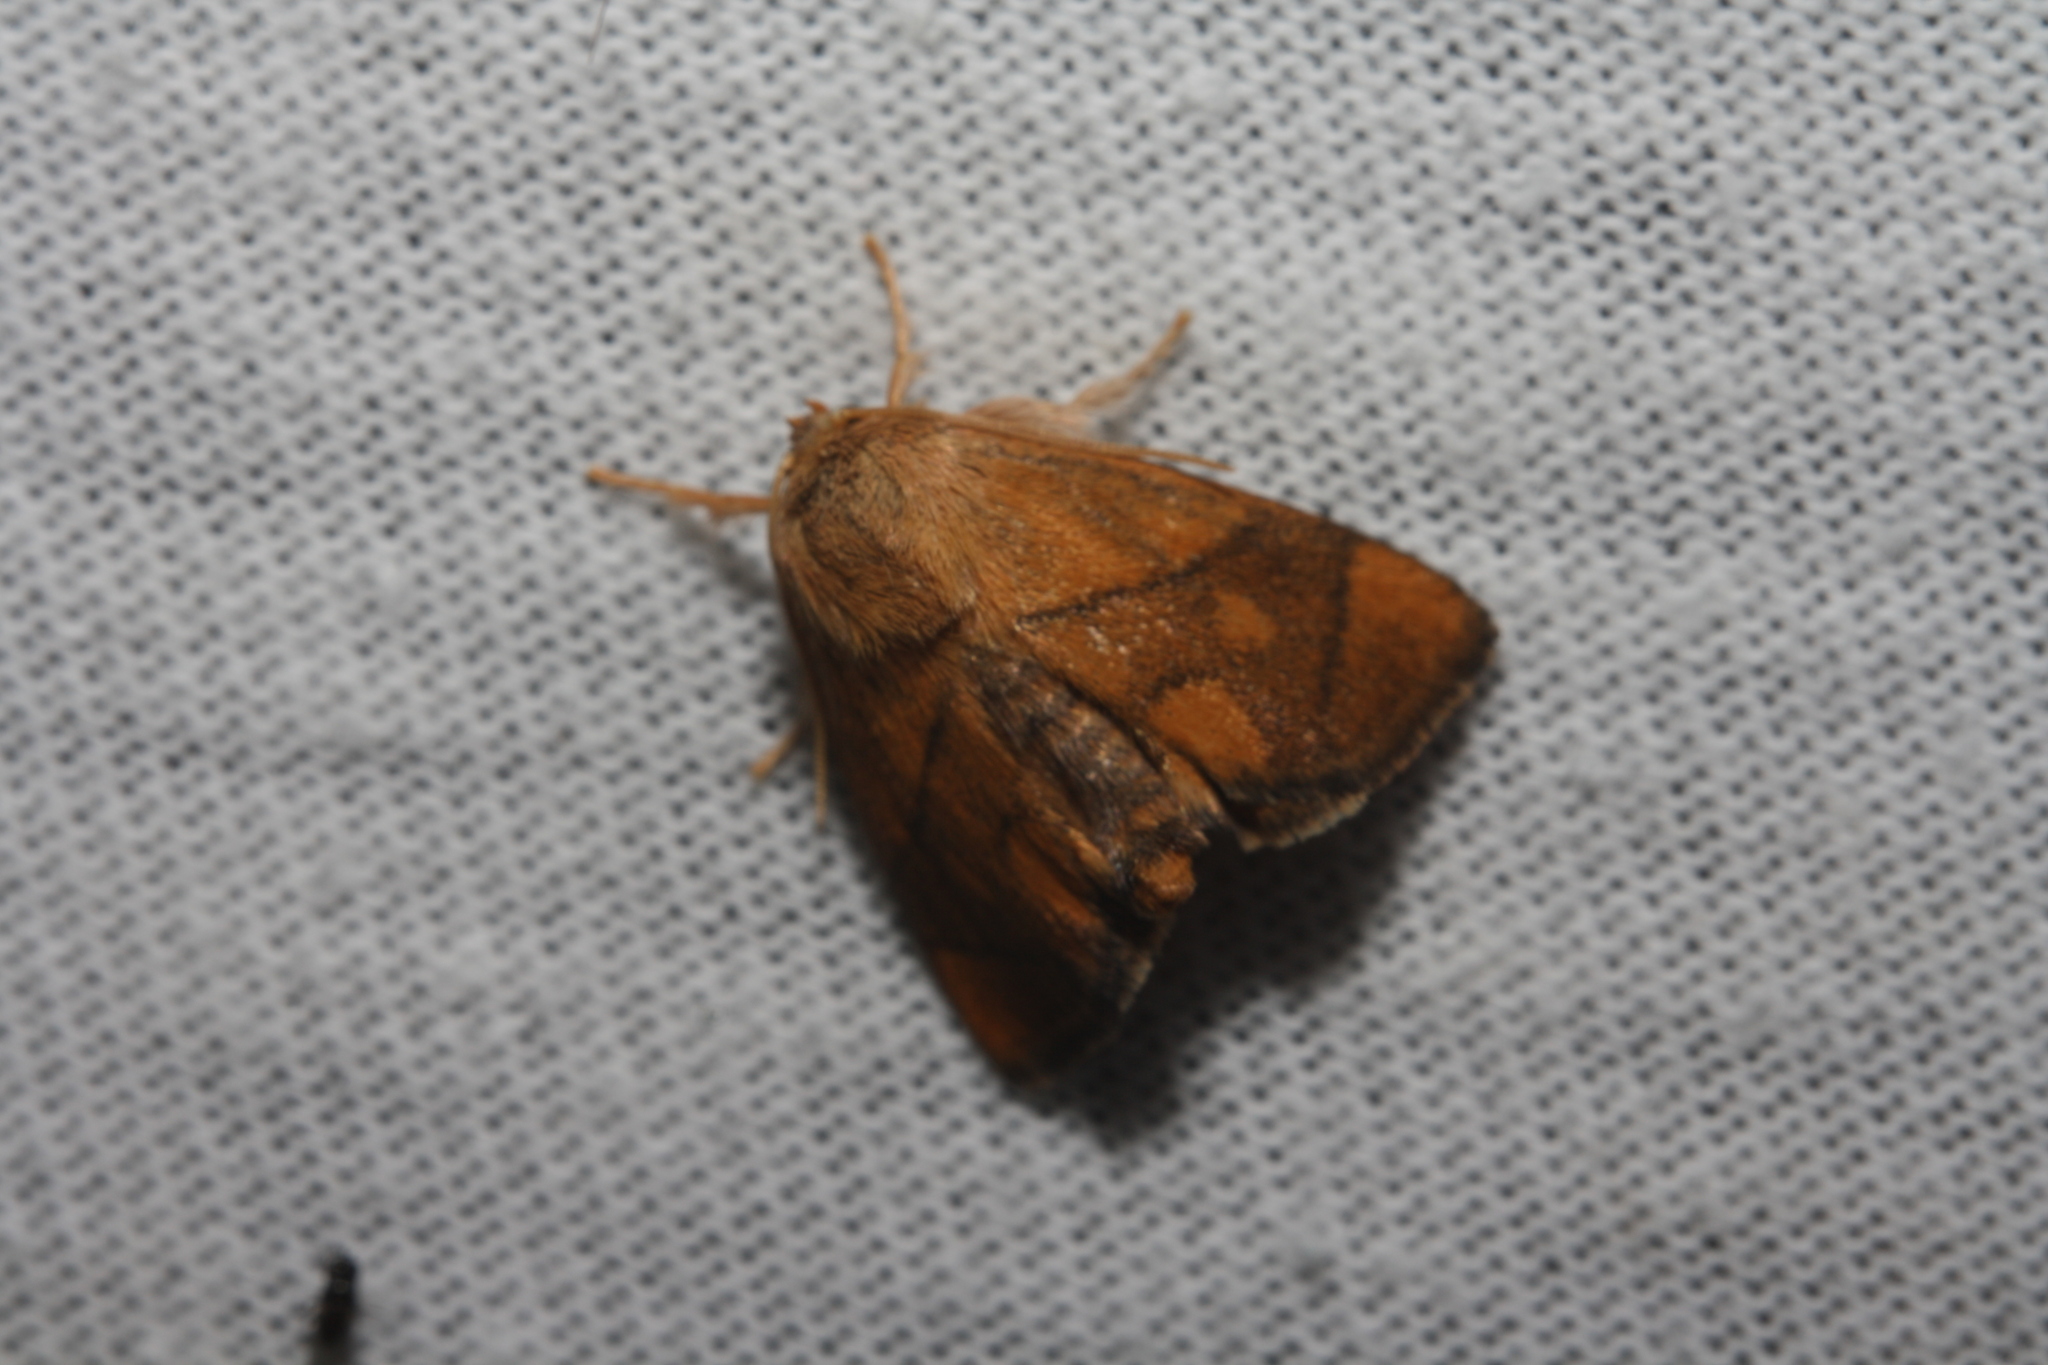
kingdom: Animalia
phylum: Arthropoda
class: Insecta
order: Lepidoptera
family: Limacodidae
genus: Apoda
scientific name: Apoda limacodes
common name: Festoon
